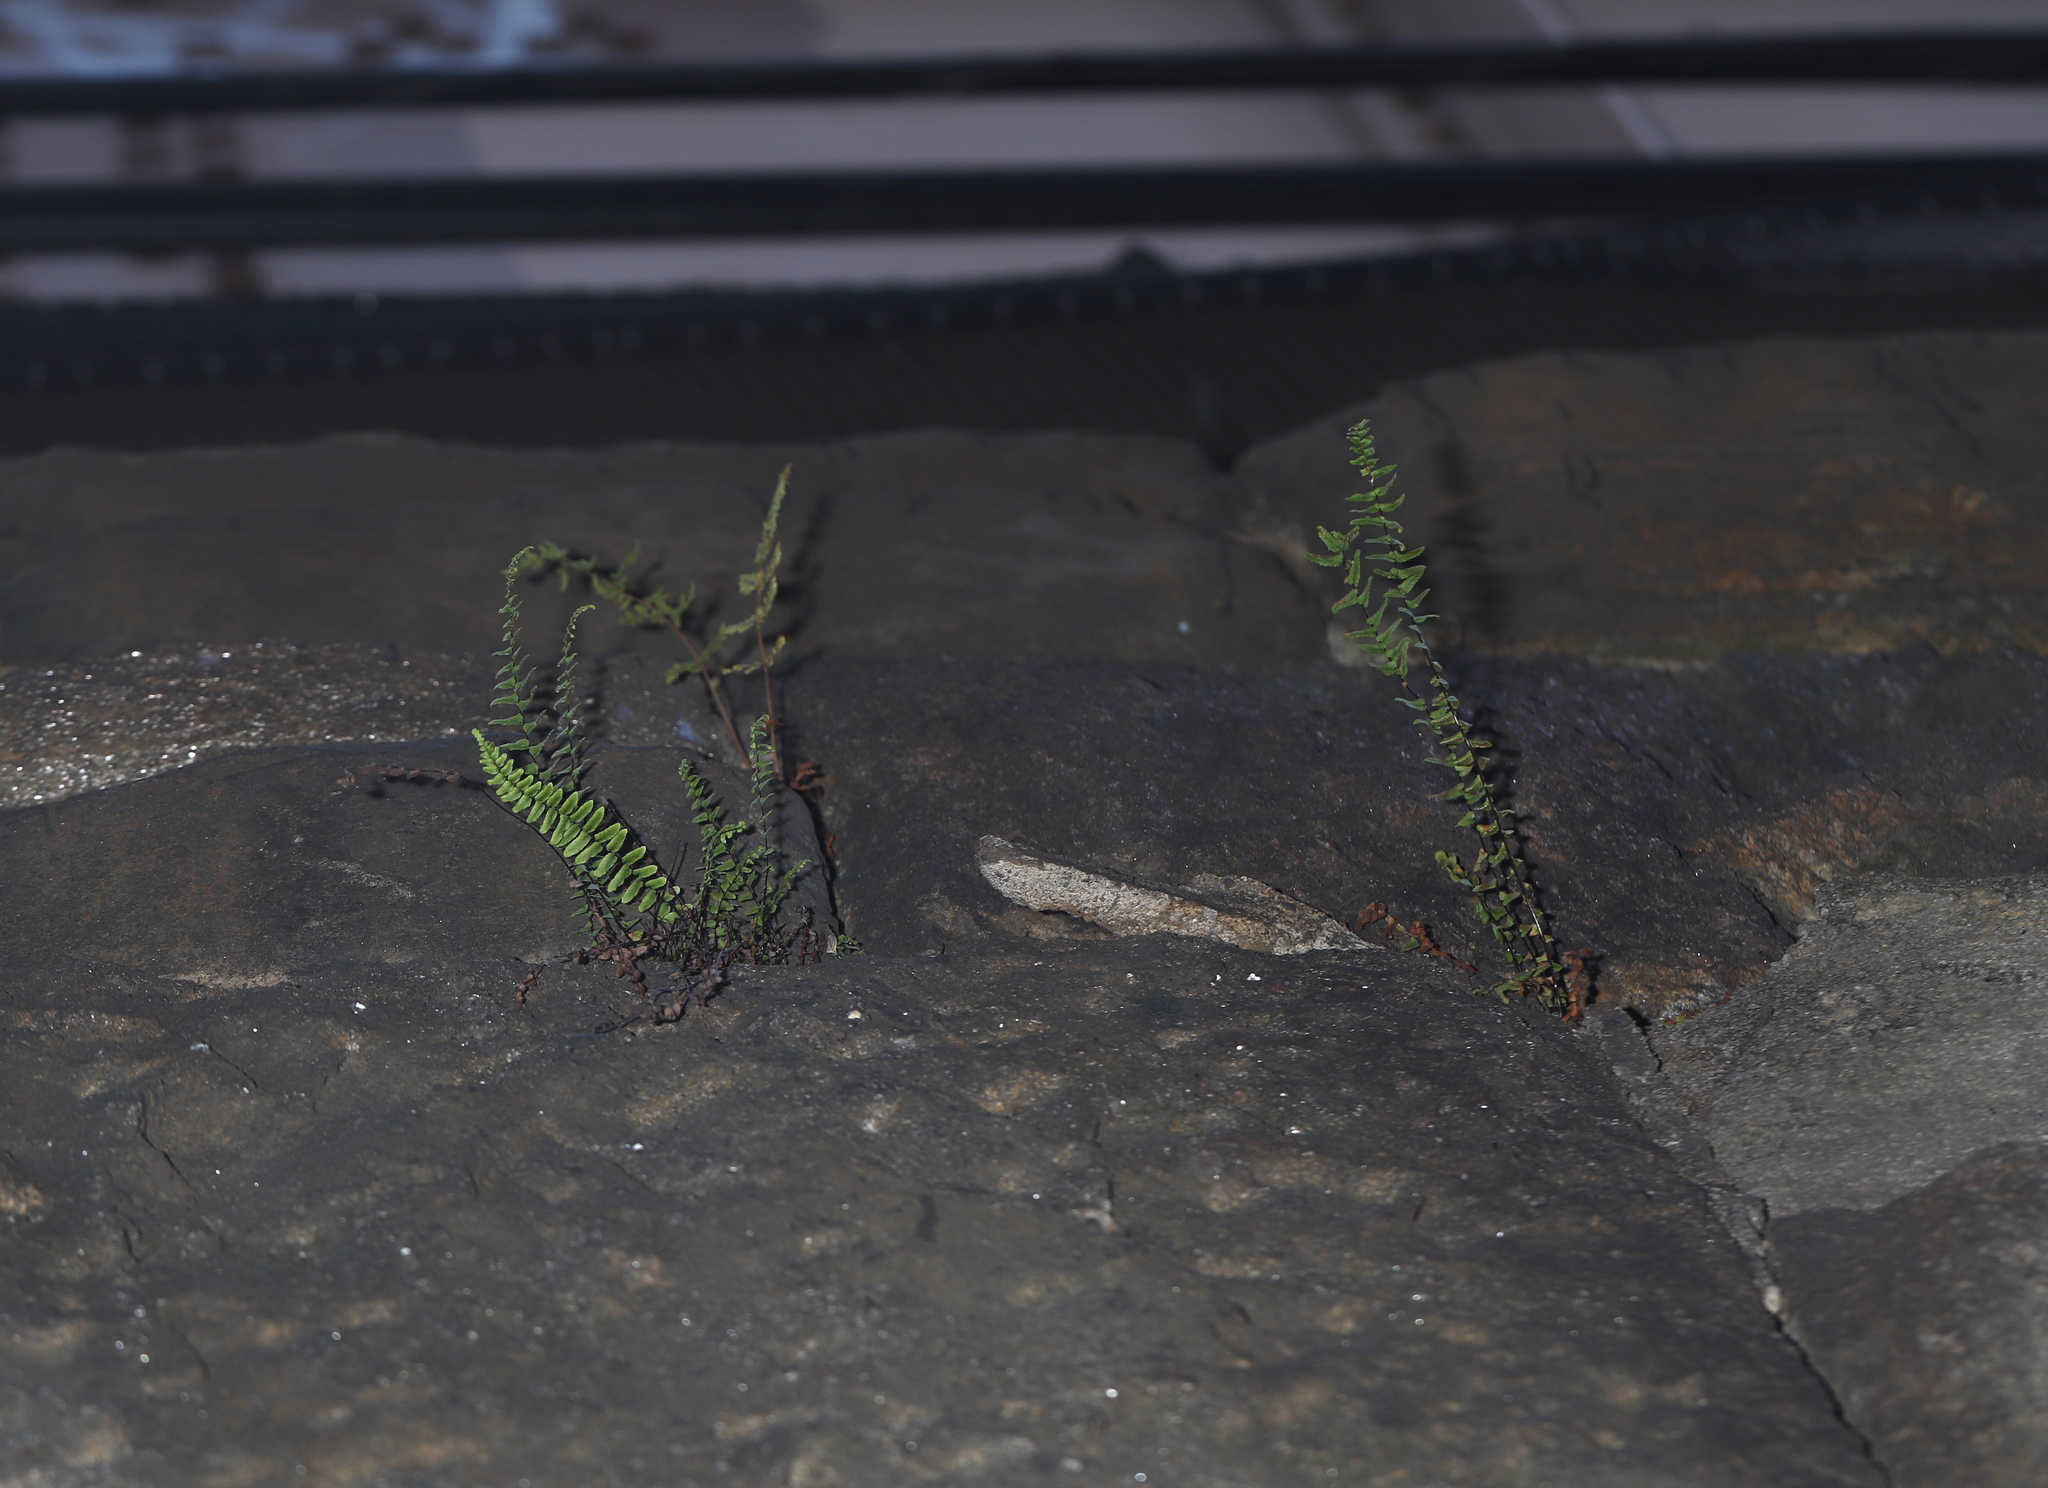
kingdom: Plantae
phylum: Tracheophyta
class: Polypodiopsida
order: Polypodiales
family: Aspleniaceae
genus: Asplenium
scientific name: Asplenium platyneuron
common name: Ebony spleenwort
